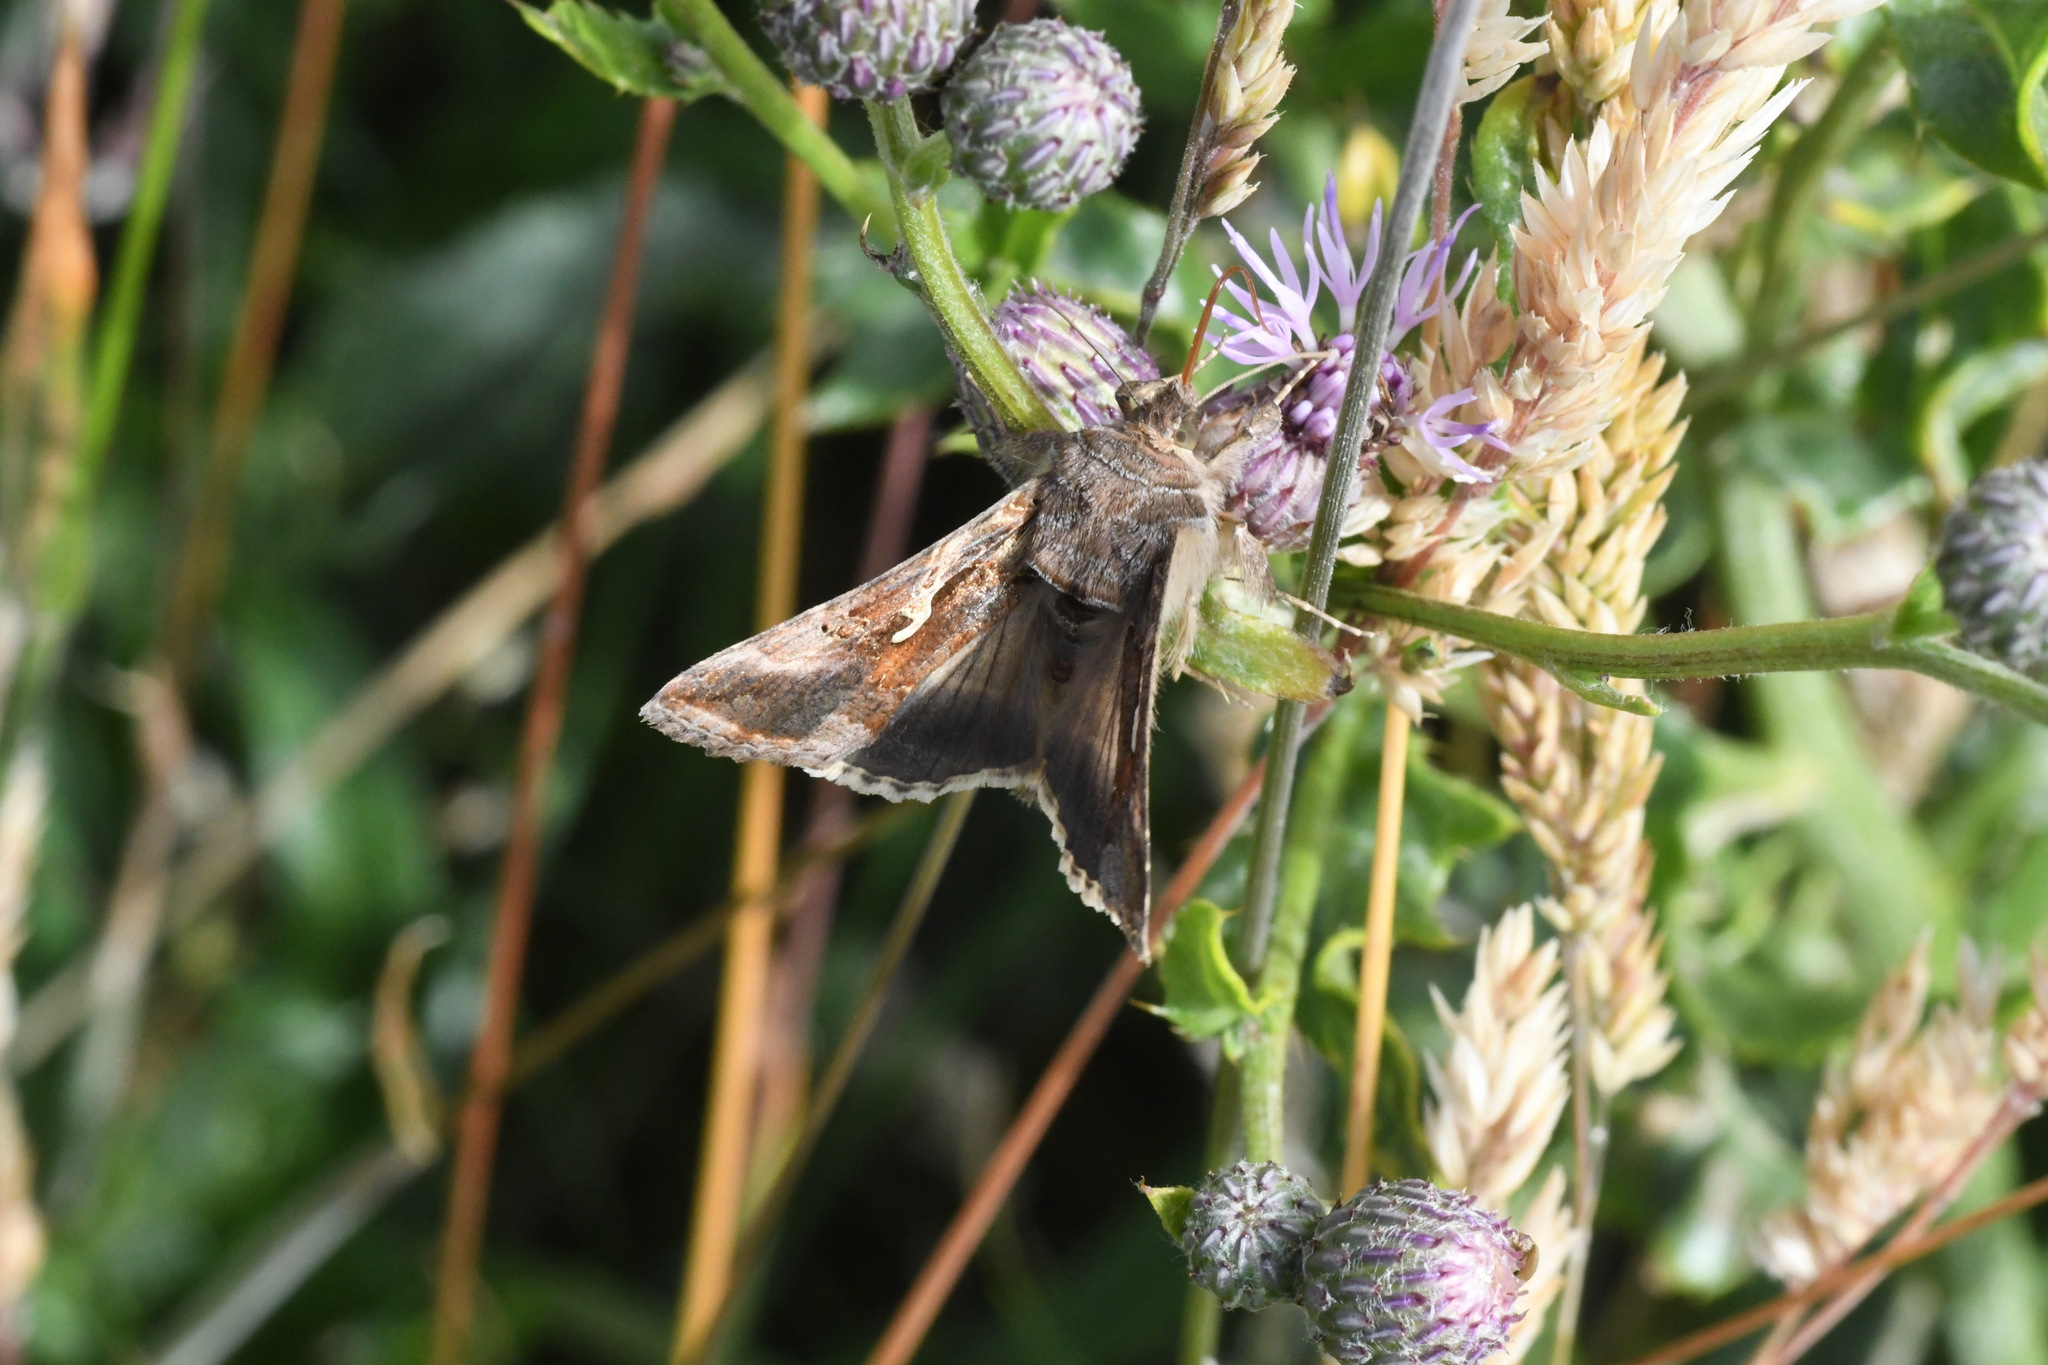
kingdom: Animalia
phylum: Arthropoda
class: Insecta
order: Lepidoptera
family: Noctuidae
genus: Autographa
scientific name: Autographa gamma
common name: Silver y
